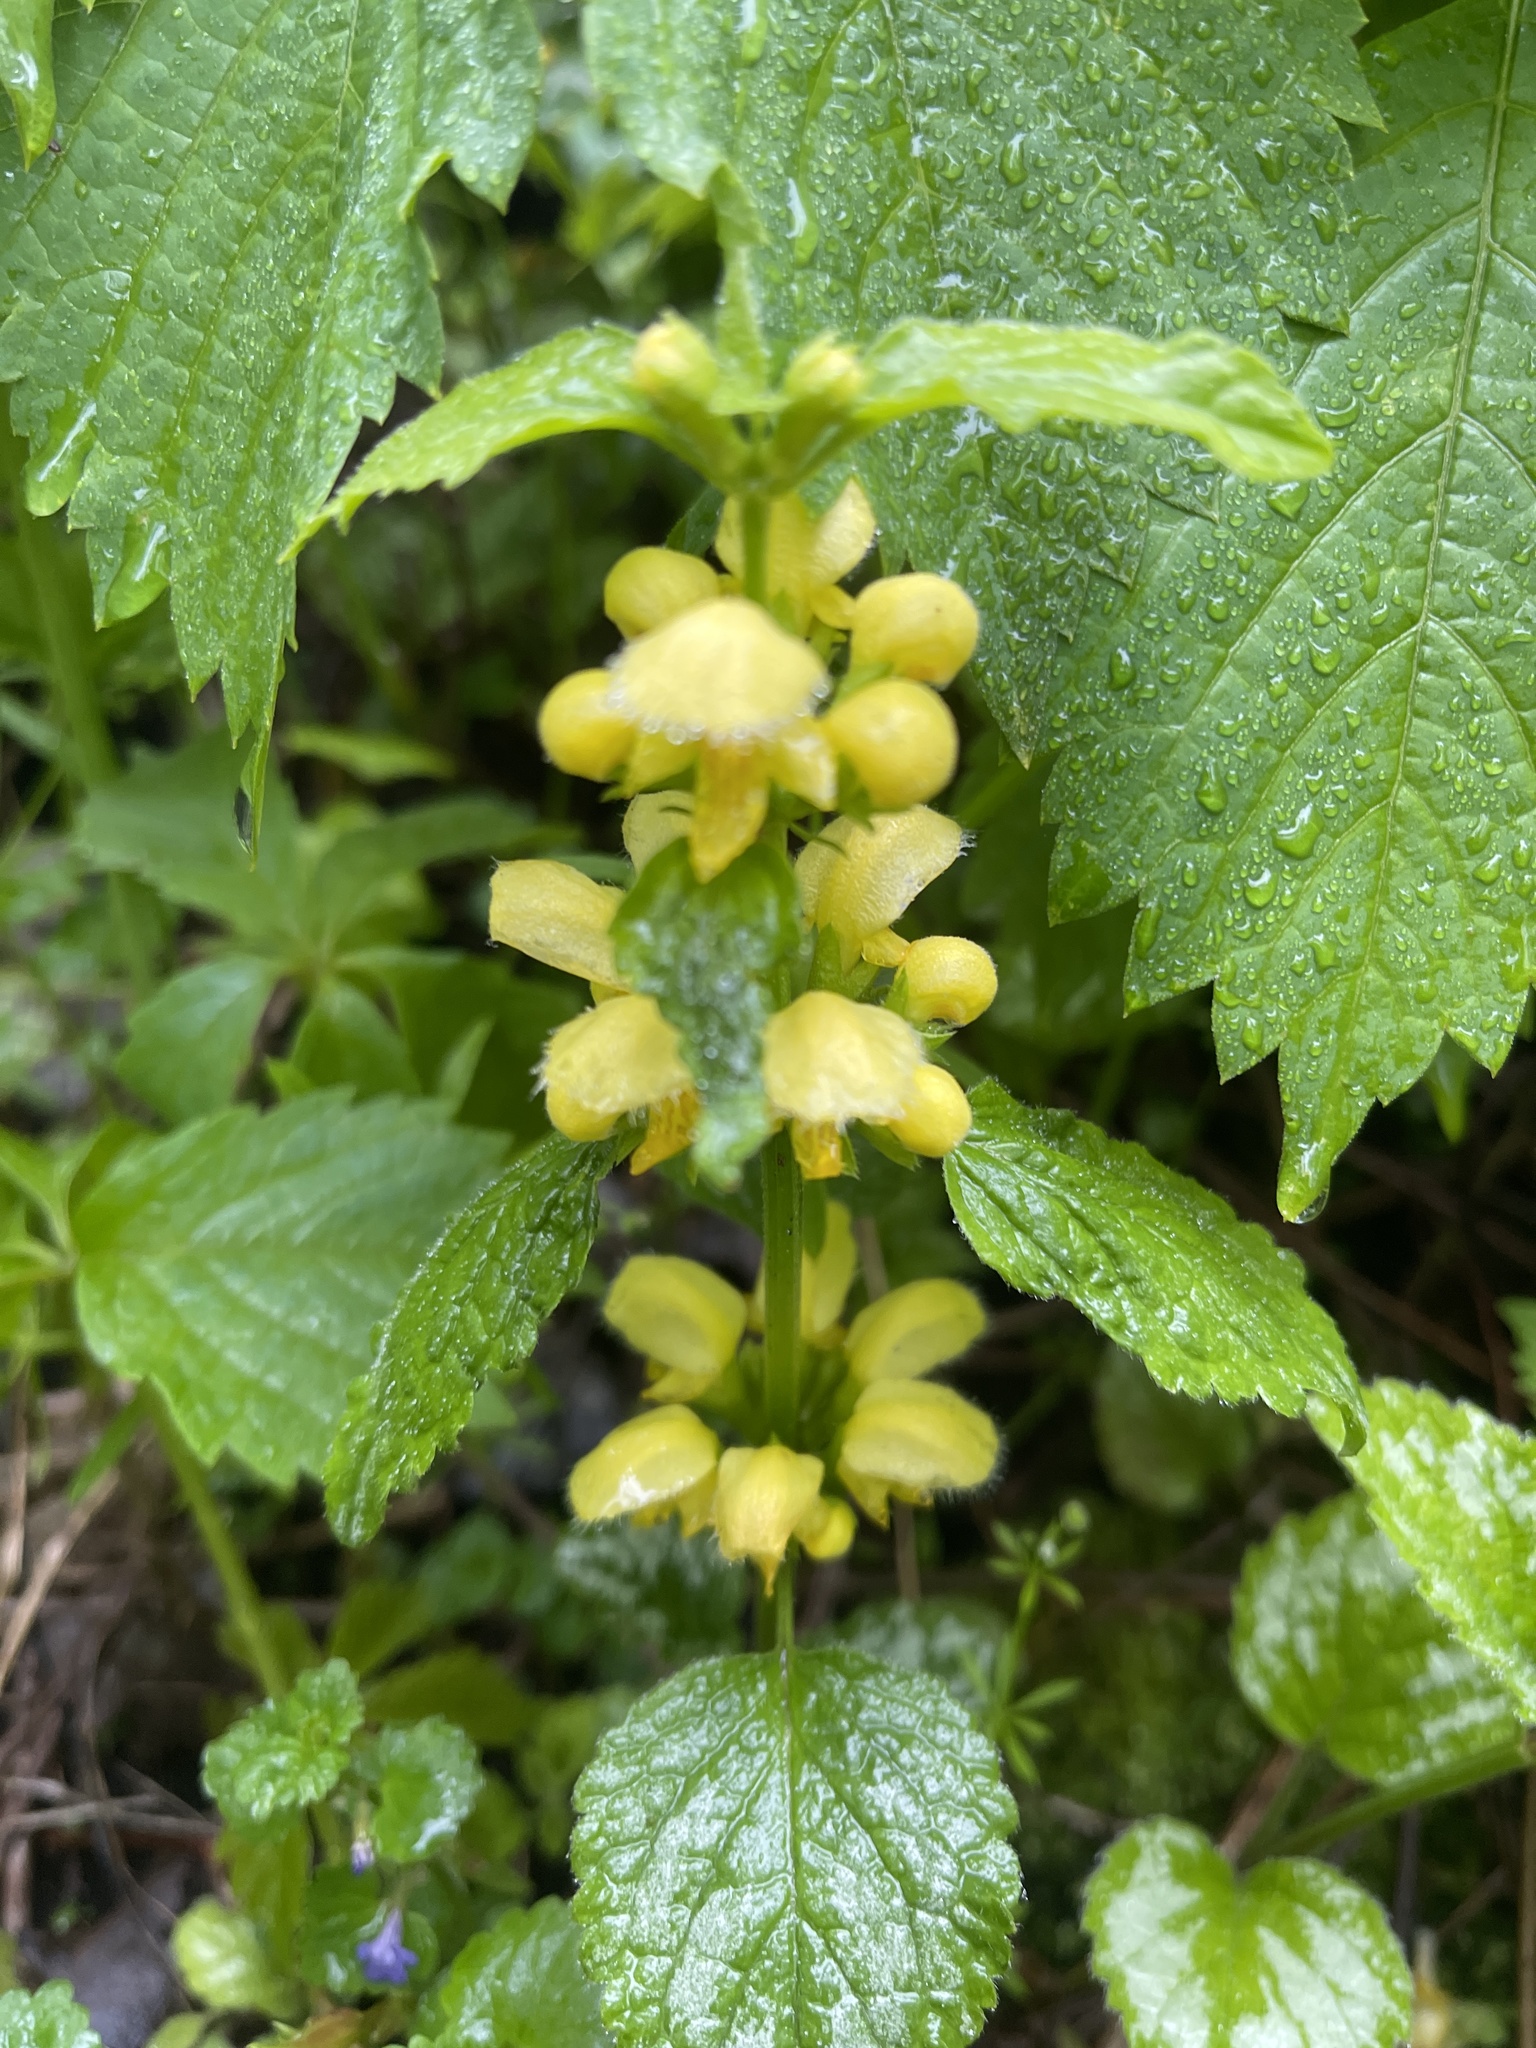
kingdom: Plantae
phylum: Tracheophyta
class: Magnoliopsida
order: Lamiales
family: Lamiaceae
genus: Lamium
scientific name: Lamium galeobdolon
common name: Yellow archangel
